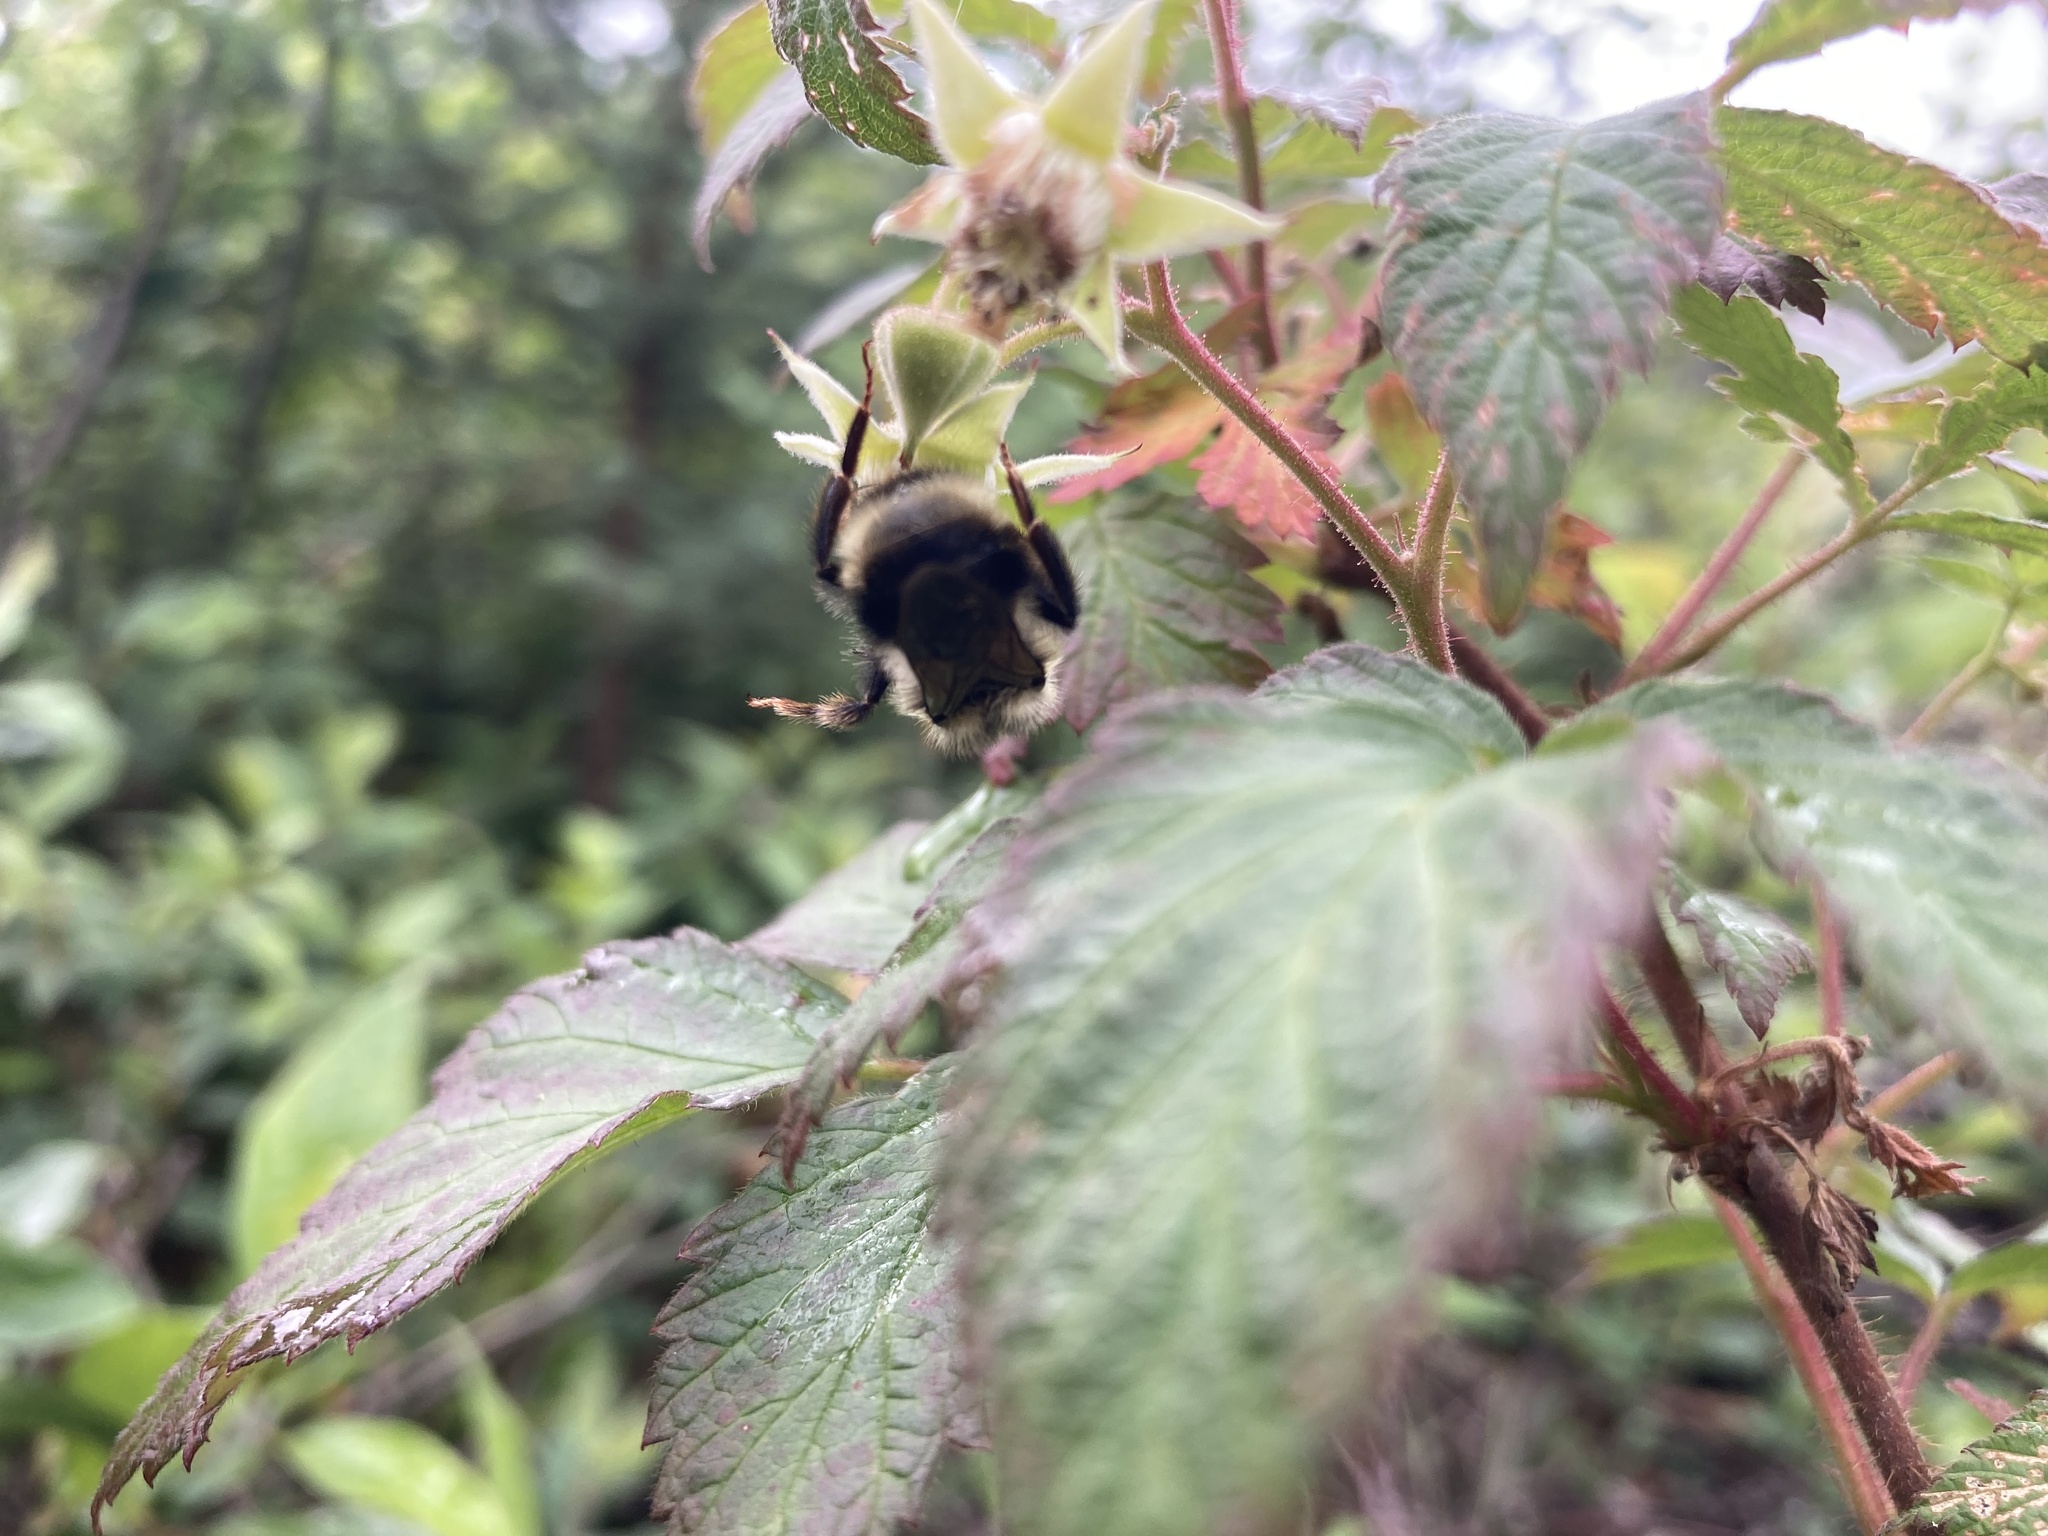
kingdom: Animalia
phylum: Arthropoda
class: Insecta
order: Hymenoptera
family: Apidae
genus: Bombus
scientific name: Bombus flavidus
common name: Fernald cuckoo bumble bee
